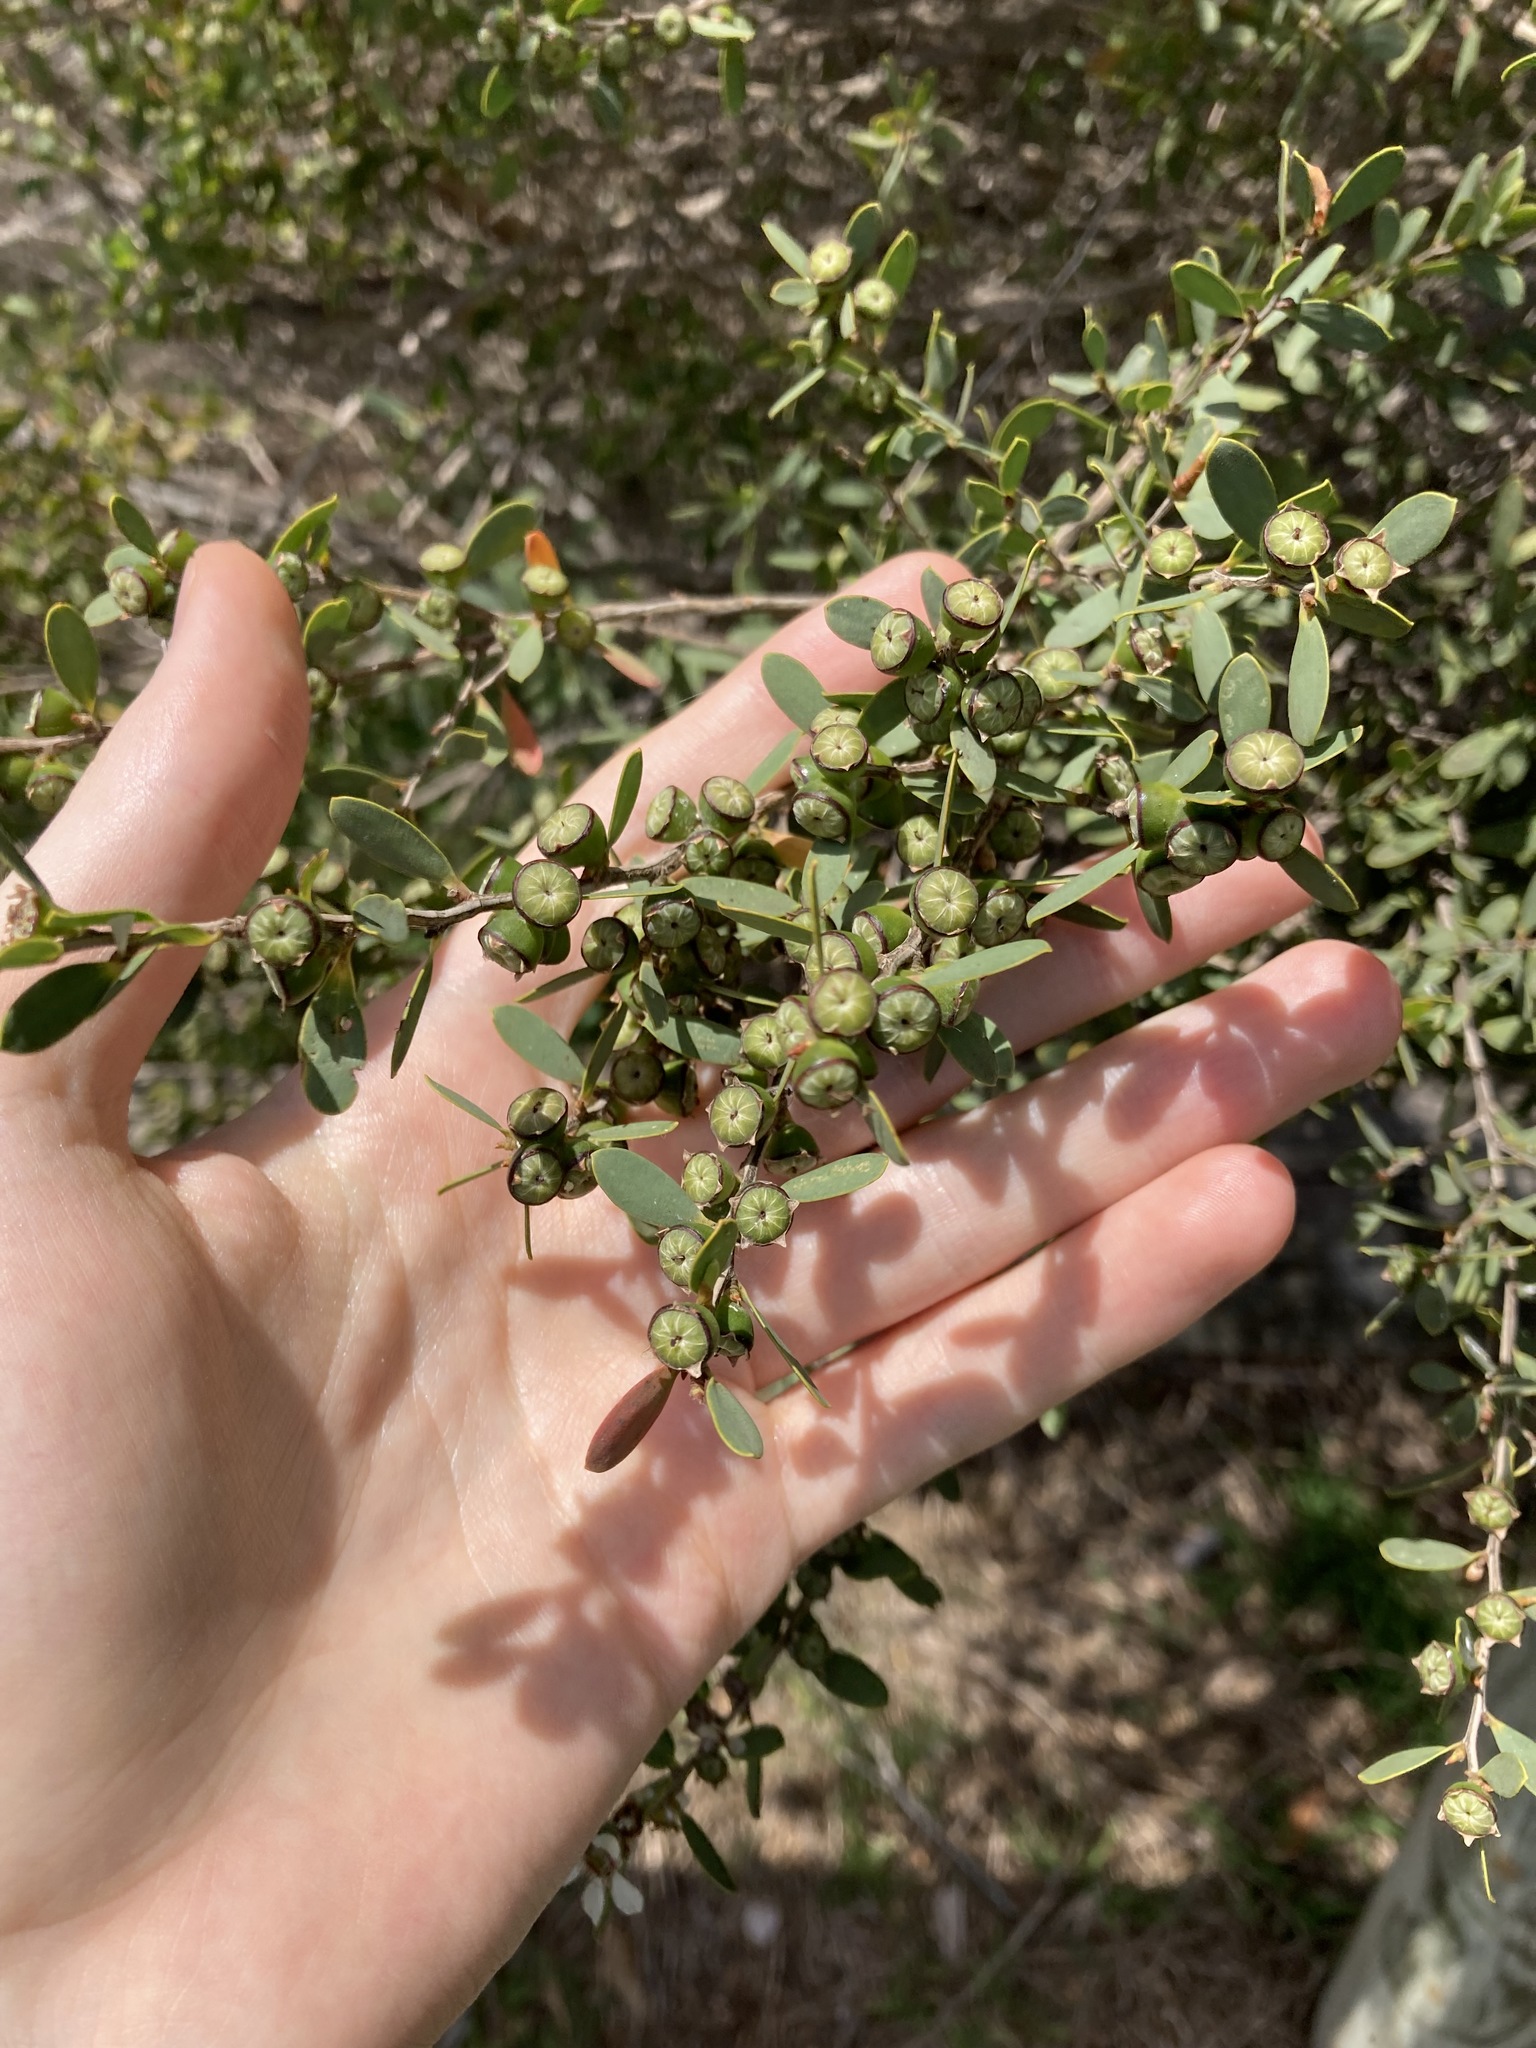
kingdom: Plantae
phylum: Tracheophyta
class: Magnoliopsida
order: Myrtales
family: Myrtaceae
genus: Leptospermum
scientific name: Leptospermum laevigatum
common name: Australian teatree
